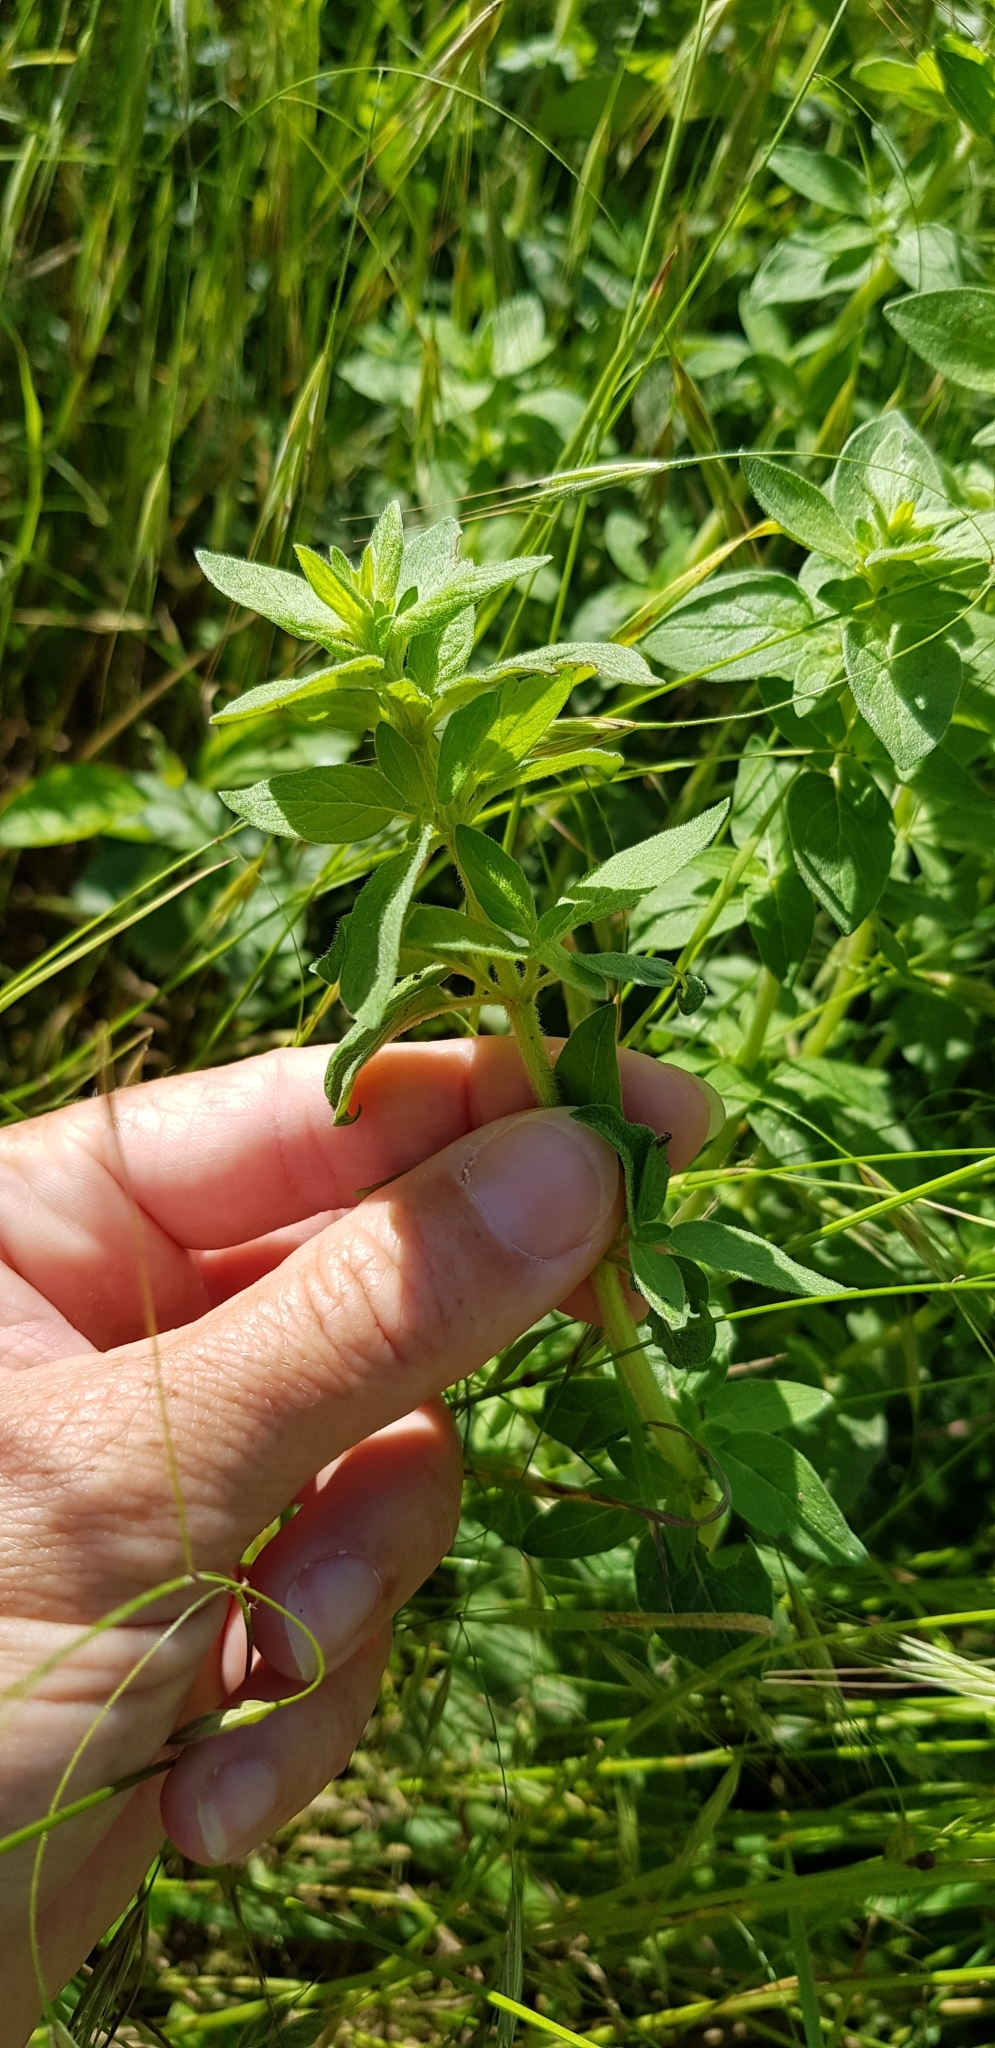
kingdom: Plantae
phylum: Tracheophyta
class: Magnoliopsida
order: Lamiales
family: Lamiaceae
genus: Origanum
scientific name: Origanum vulgare
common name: Wild marjoram
